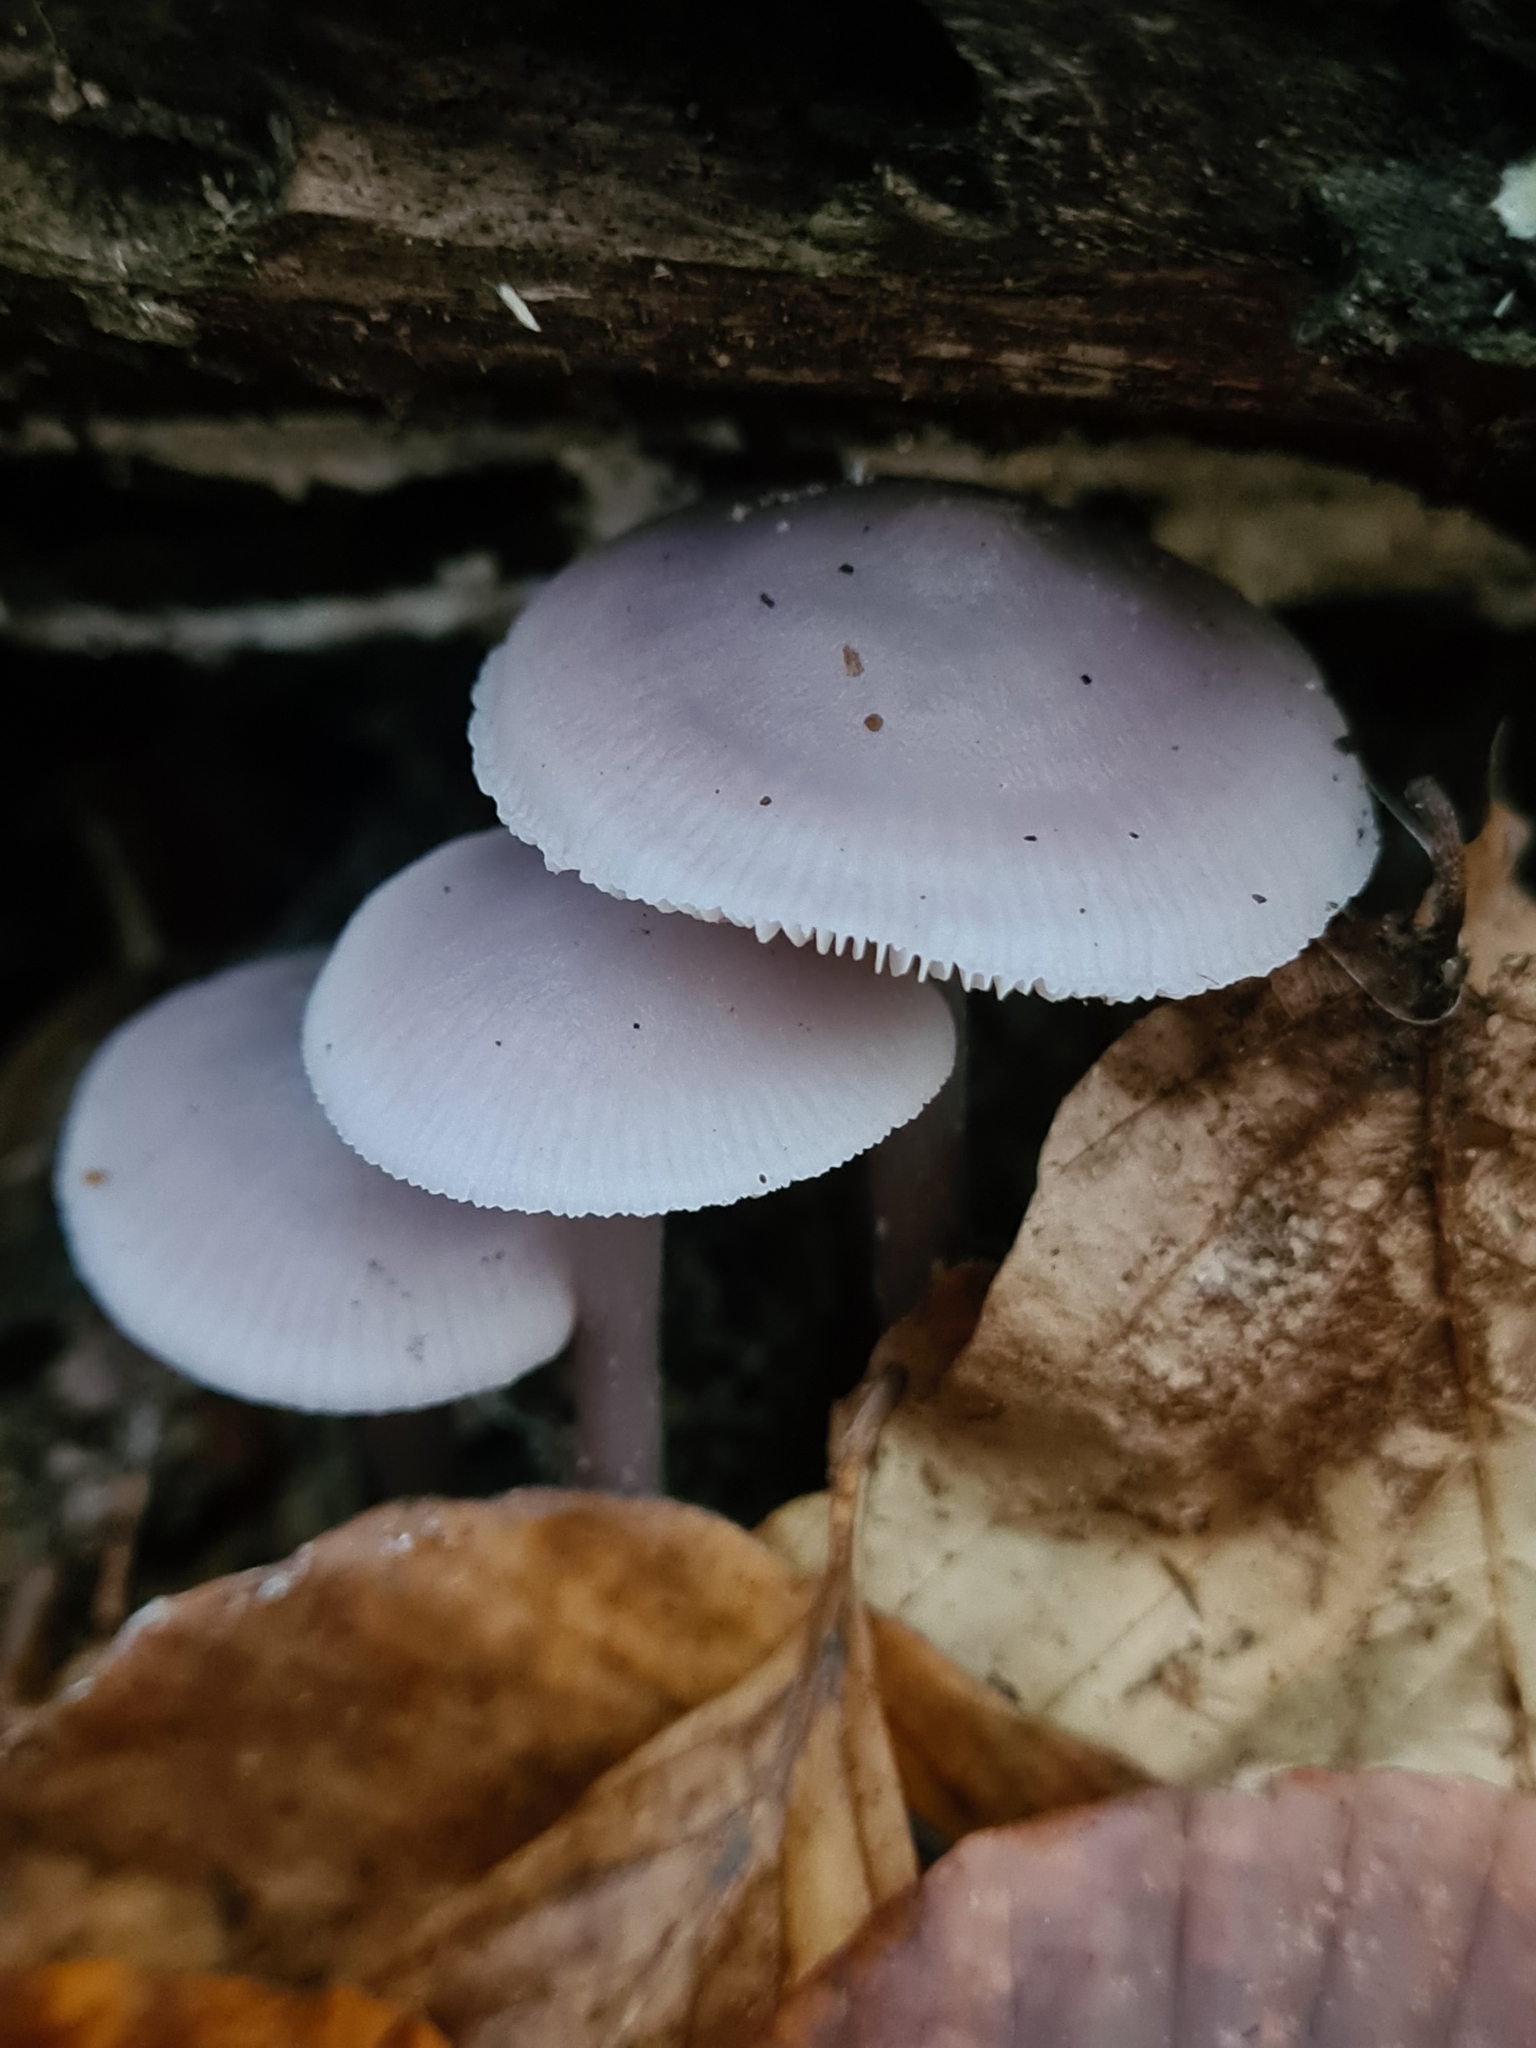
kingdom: Fungi
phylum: Basidiomycota
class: Agaricomycetes
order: Agaricales
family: Mycenaceae
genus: Mycena
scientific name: Mycena pura
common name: Lilac bonnet
